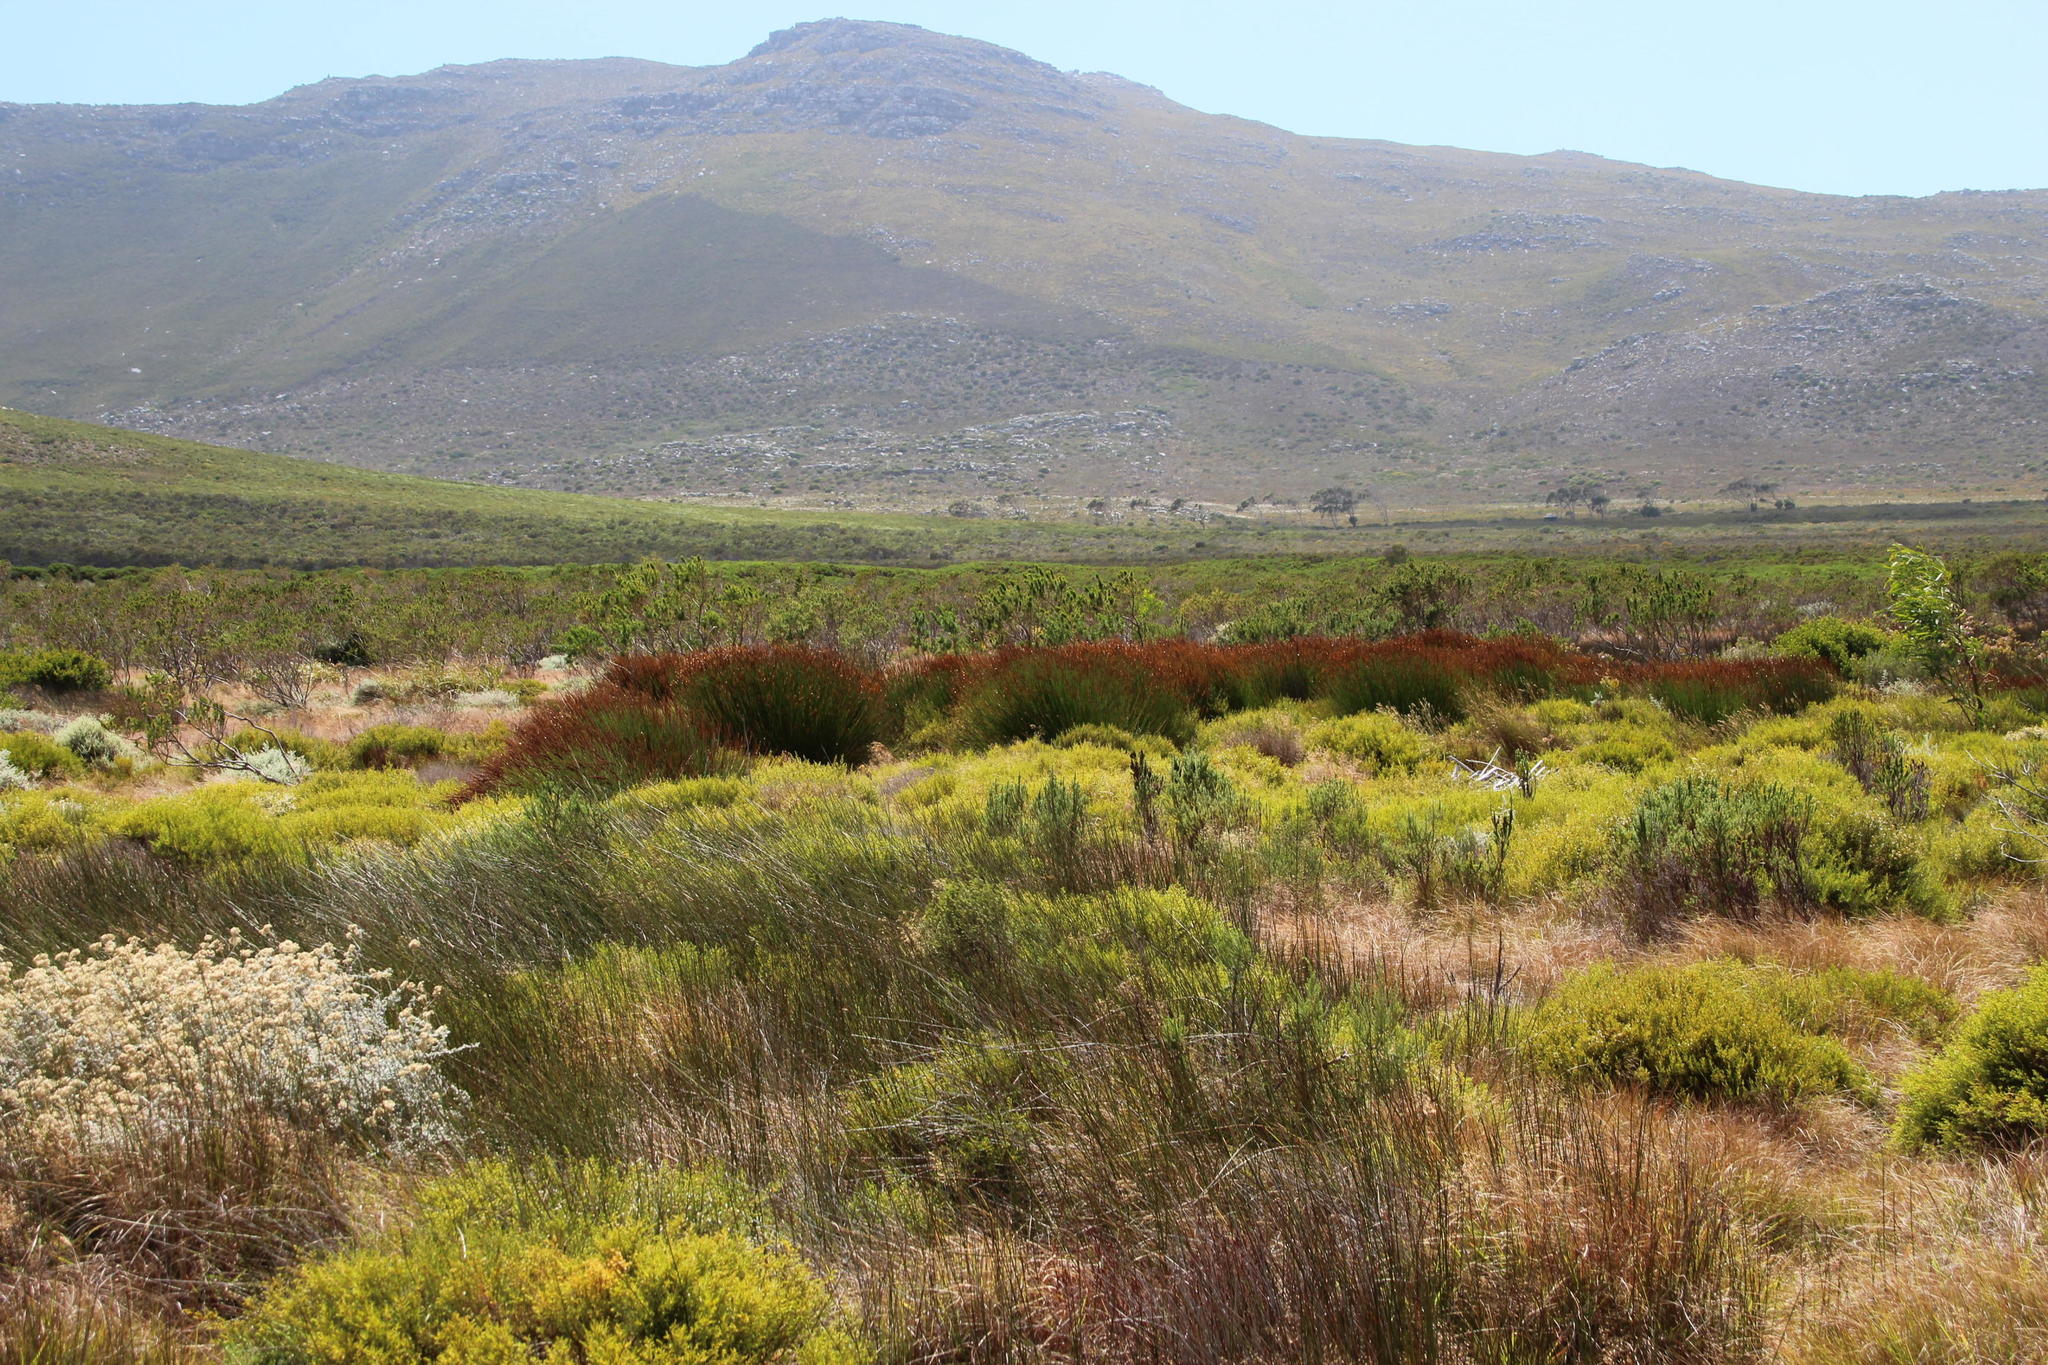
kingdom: Plantae
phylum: Tracheophyta
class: Liliopsida
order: Poales
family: Restionaceae
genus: Thamnochortus
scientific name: Thamnochortus spicigerus
